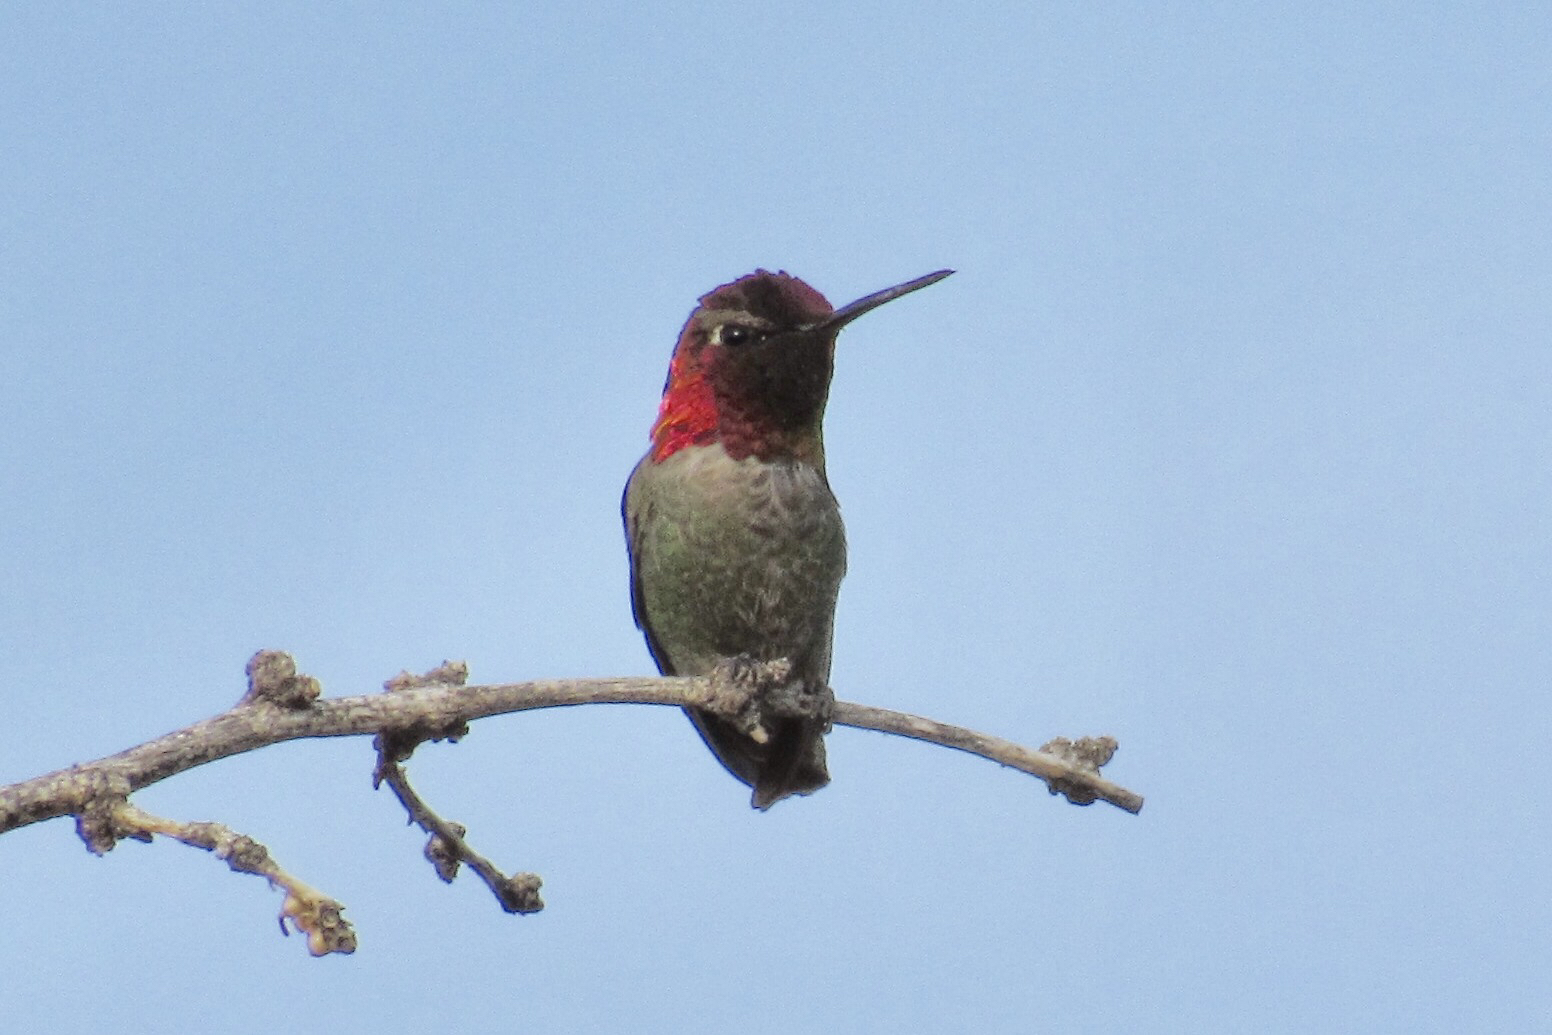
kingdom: Animalia
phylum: Chordata
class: Aves
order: Apodiformes
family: Trochilidae
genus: Calypte
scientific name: Calypte anna
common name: Anna's hummingbird
